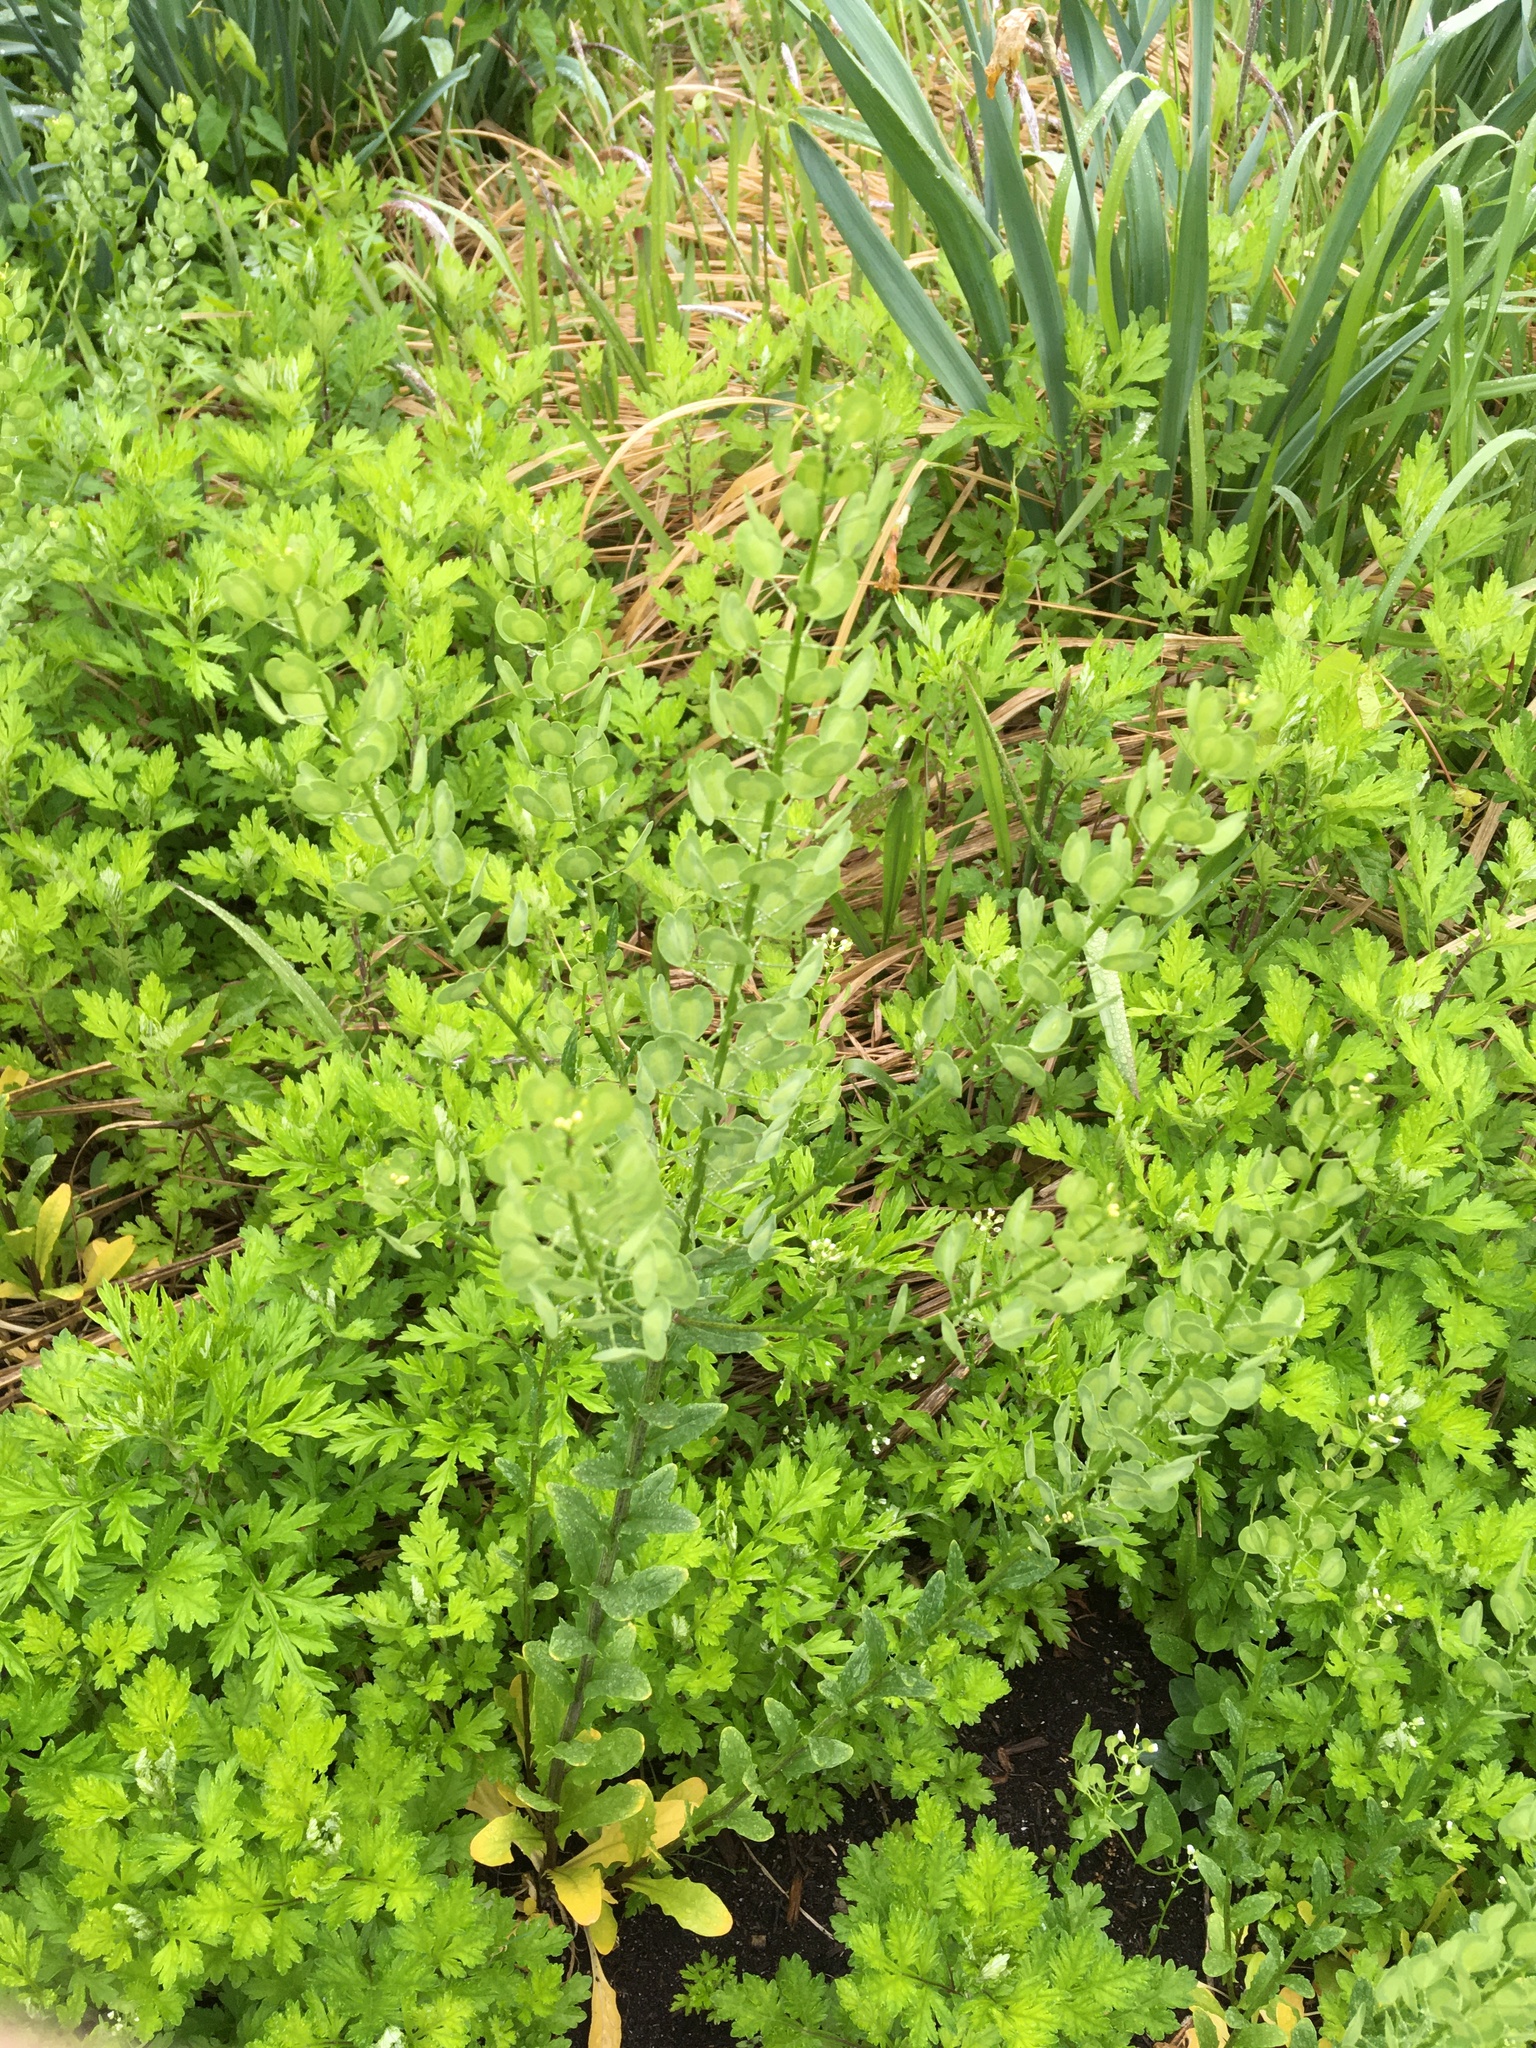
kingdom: Plantae
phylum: Tracheophyta
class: Magnoliopsida
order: Brassicales
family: Brassicaceae
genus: Thlaspi
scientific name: Thlaspi arvense
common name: Field pennycress
